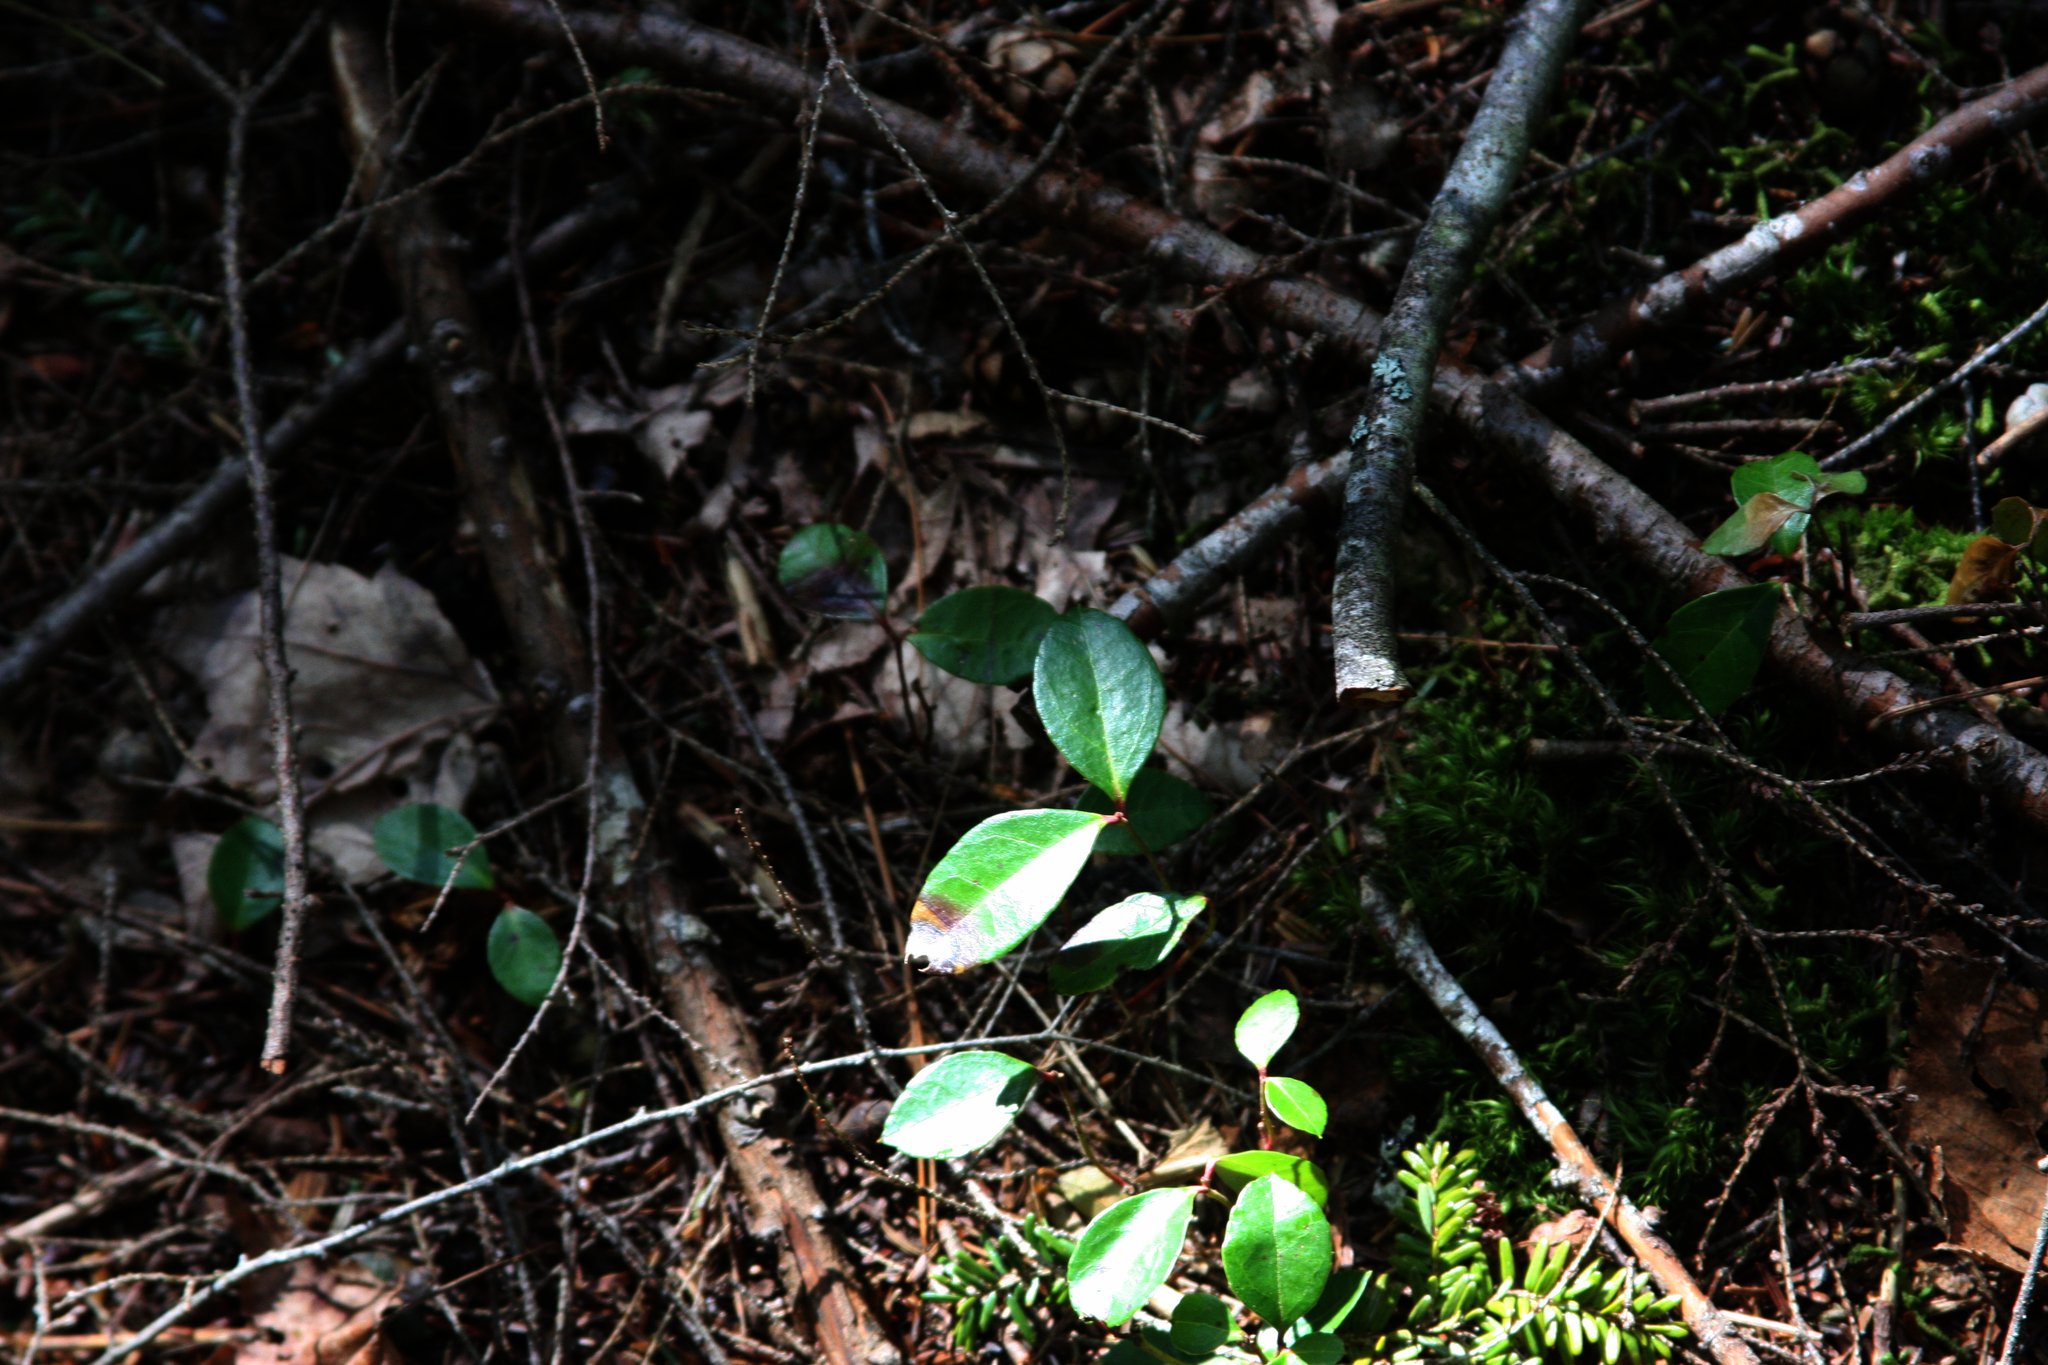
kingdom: Plantae
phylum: Tracheophyta
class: Magnoliopsida
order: Ericales
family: Ericaceae
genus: Gaultheria
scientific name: Gaultheria procumbens
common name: Checkerberry
